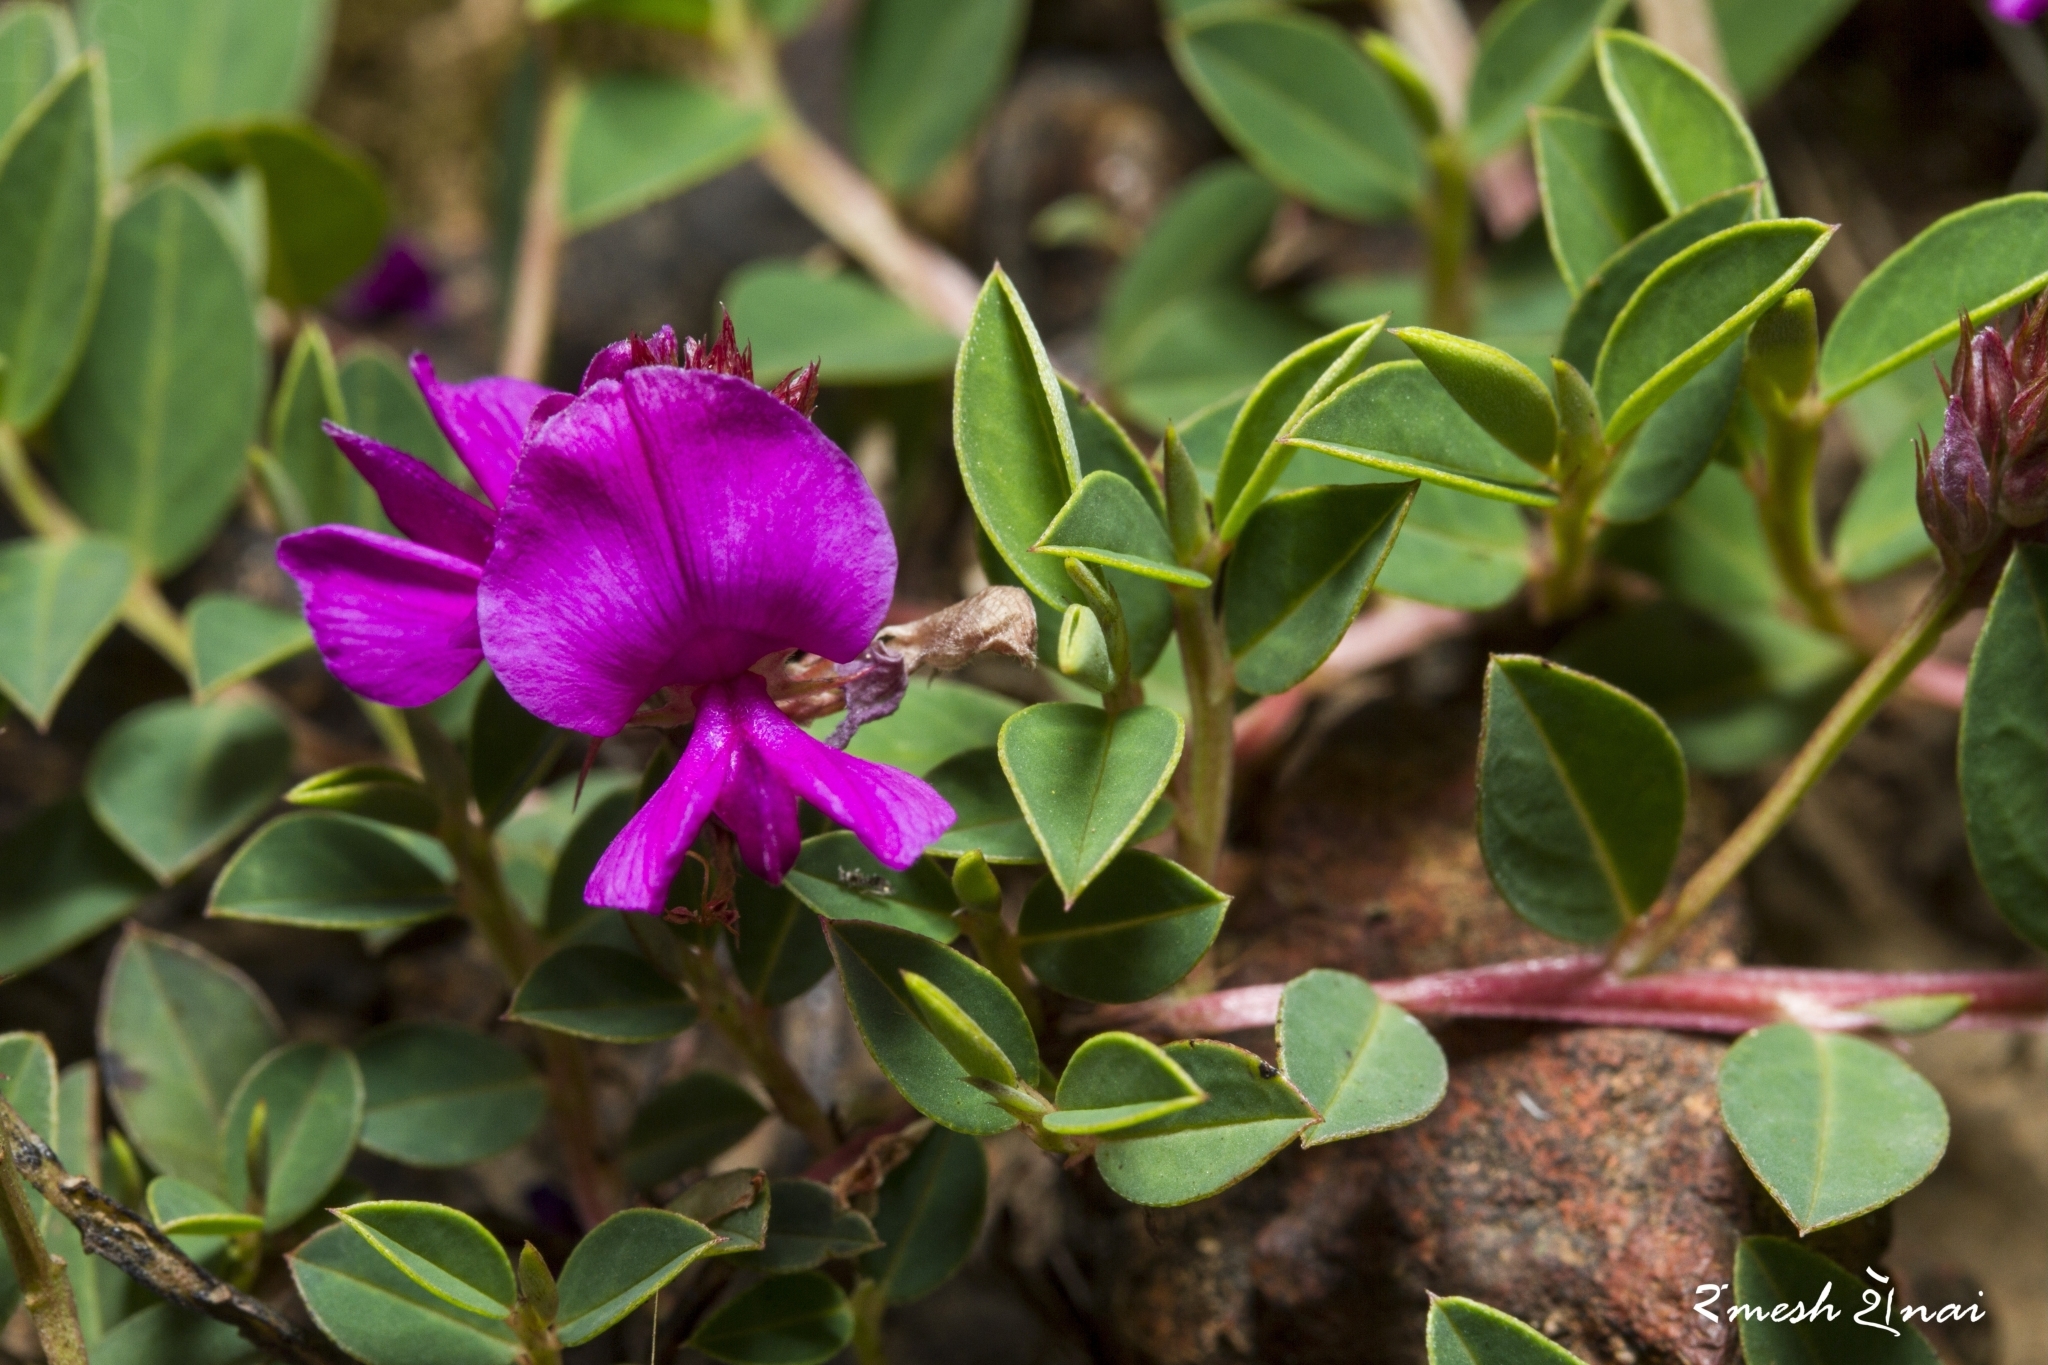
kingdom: Plantae
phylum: Tracheophyta
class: Magnoliopsida
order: Fabales
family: Fabaceae
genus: Indigofera
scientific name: Indigofera dalzelliana
